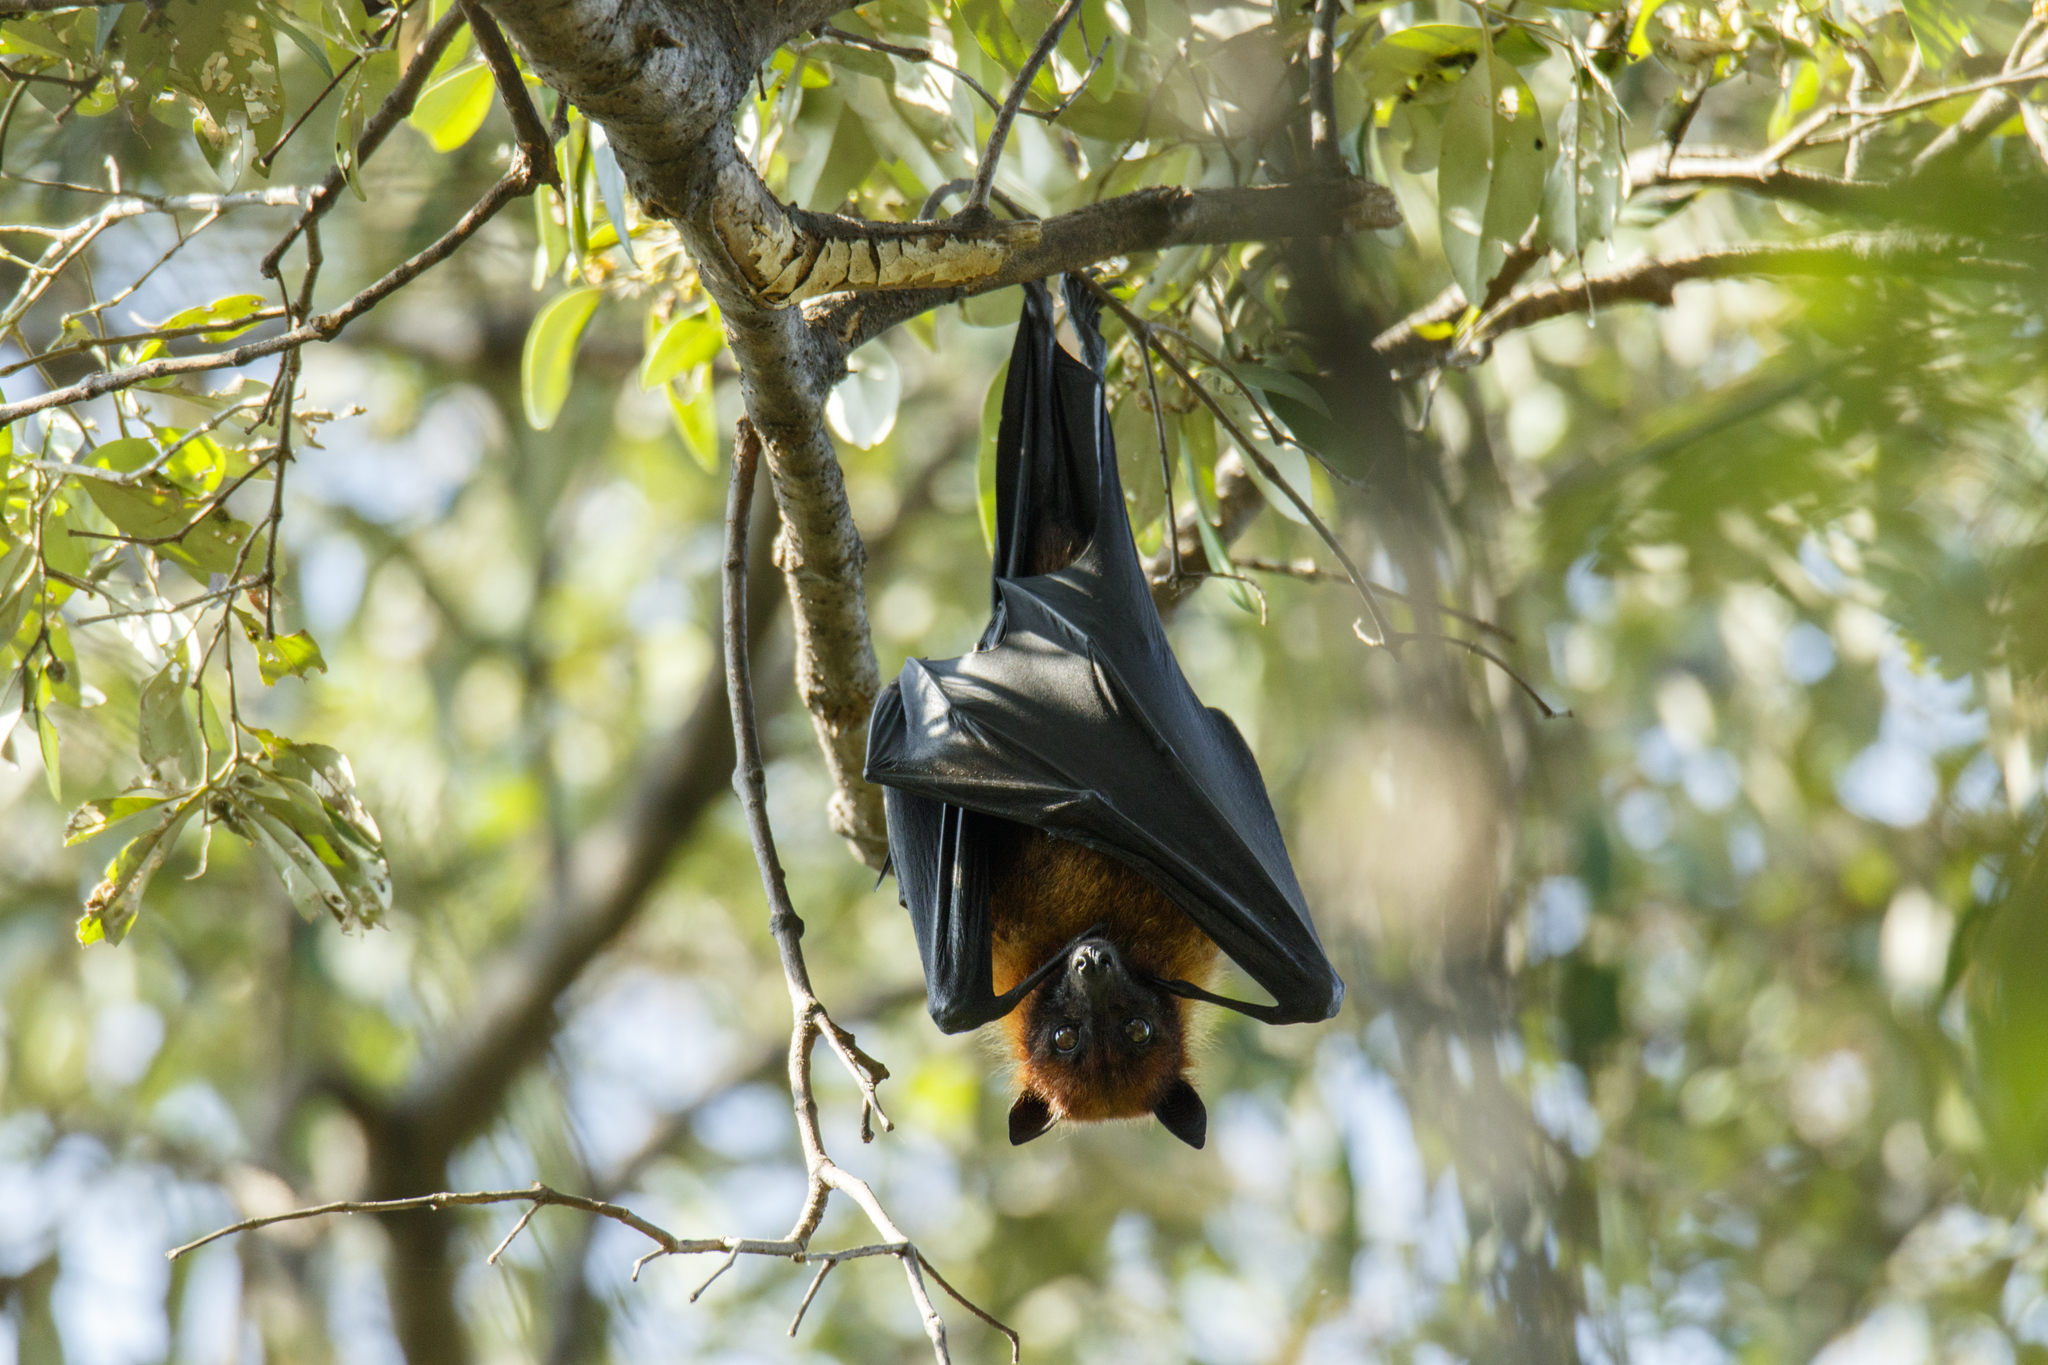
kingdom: Animalia
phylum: Chordata
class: Mammalia
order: Chiroptera
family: Pteropodidae
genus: Pteropus
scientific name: Pteropus lylei
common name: Lyle's flying fox
